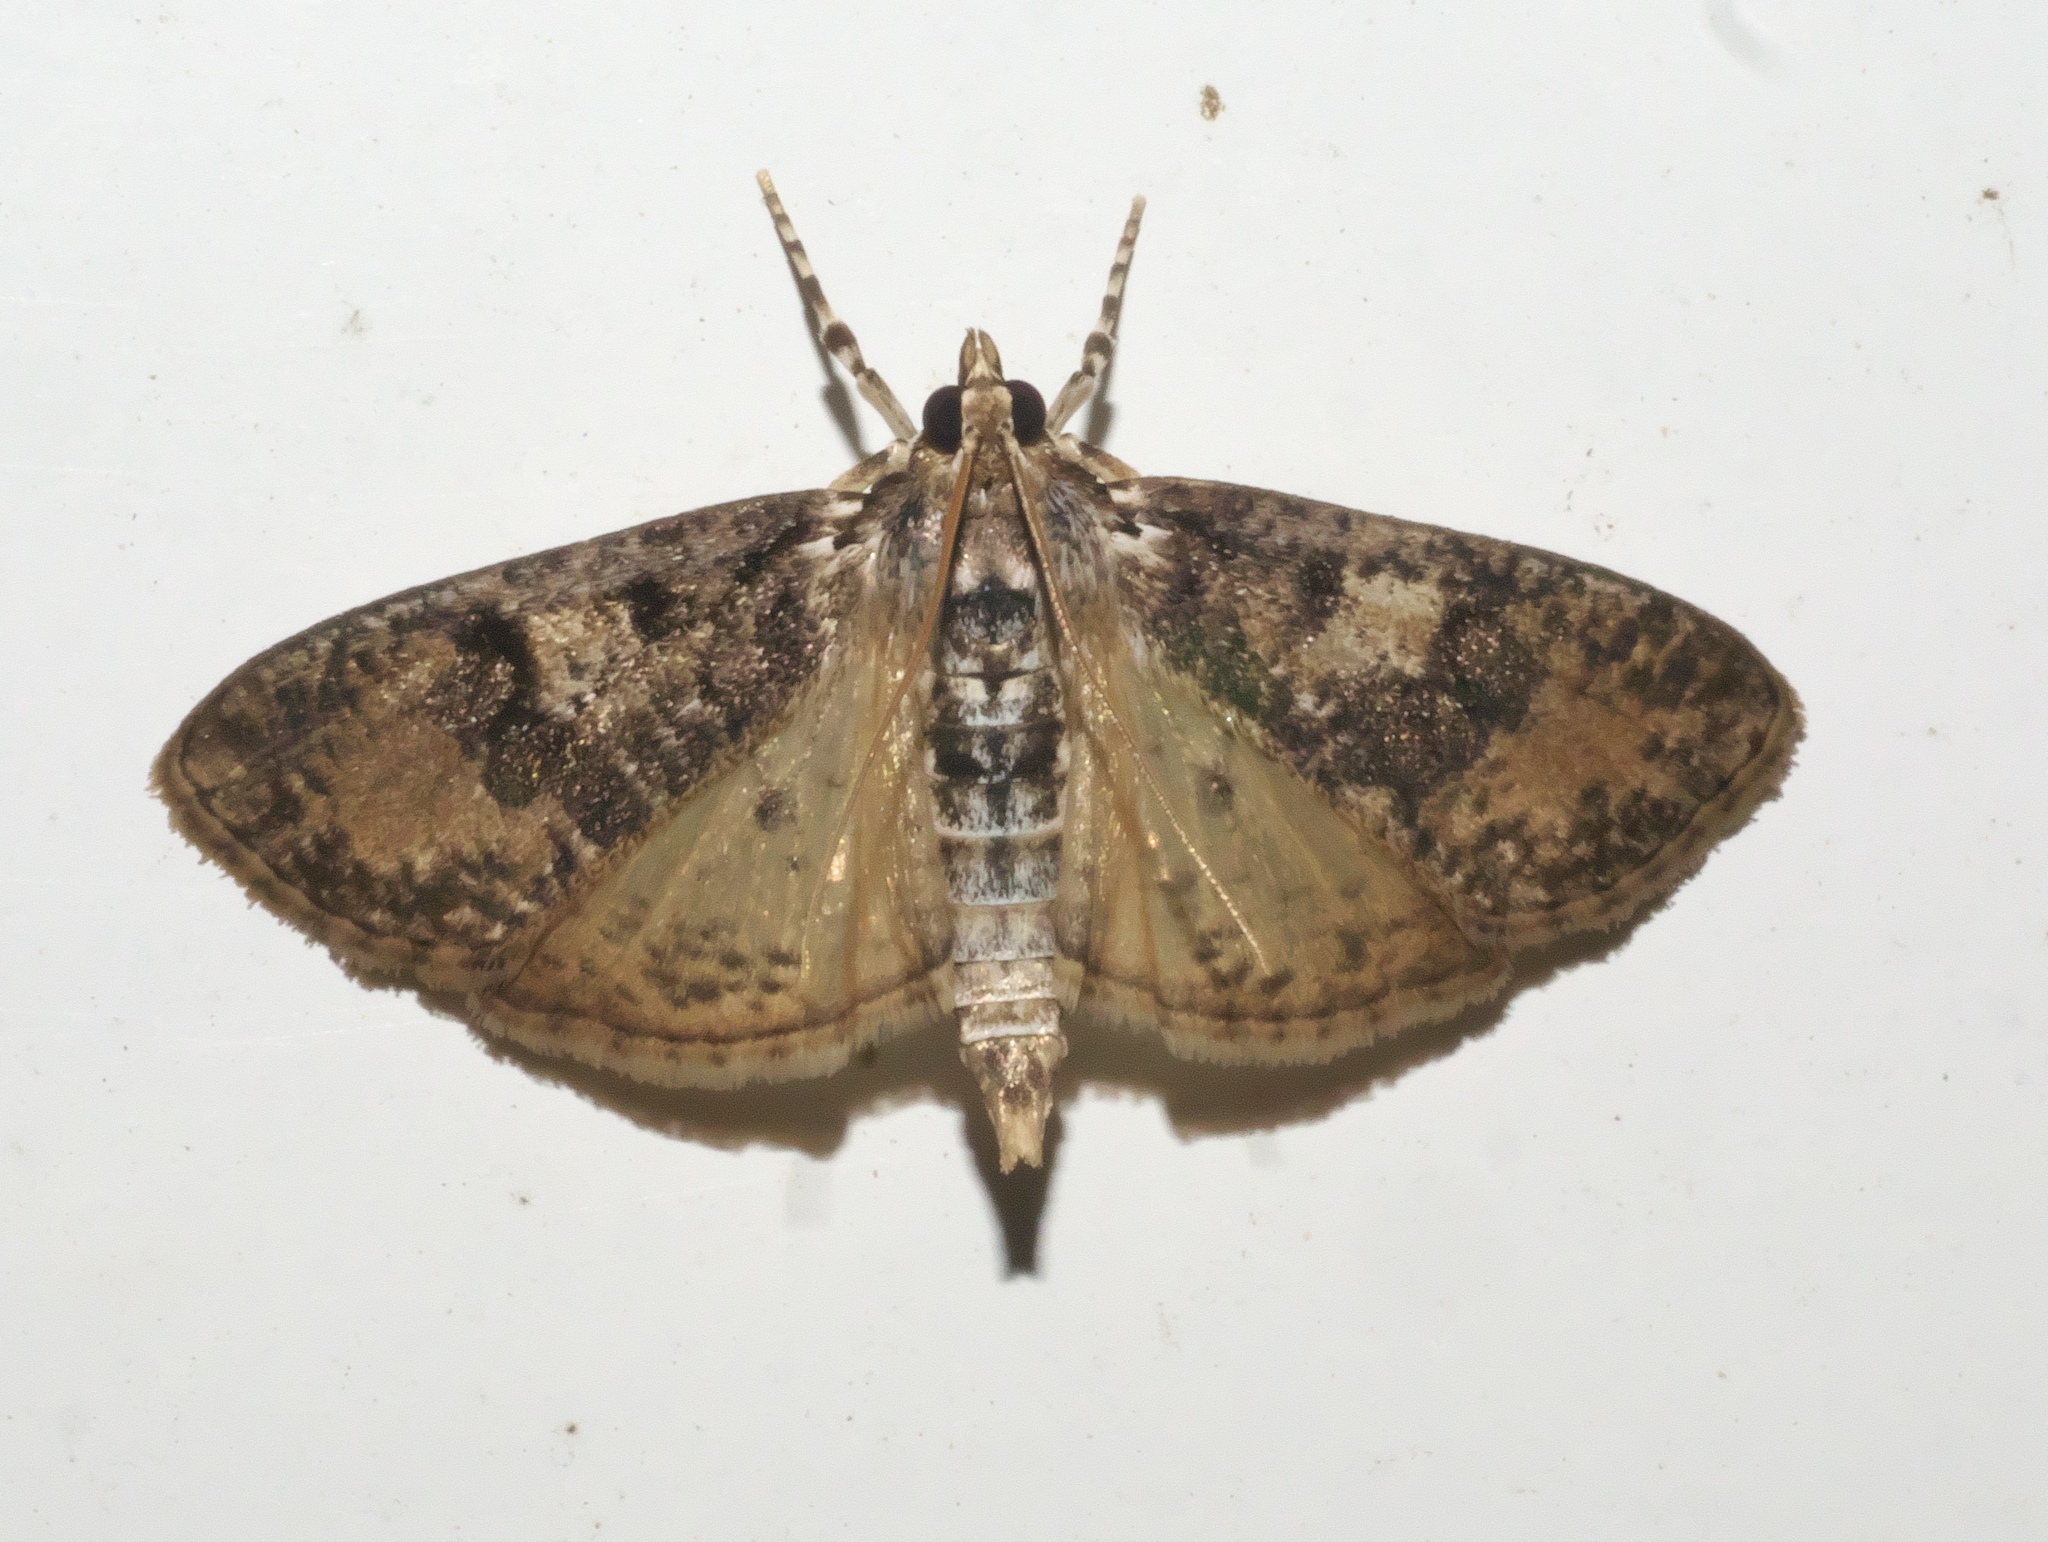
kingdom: Animalia
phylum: Arthropoda
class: Insecta
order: Lepidoptera
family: Crambidae
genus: Palpita
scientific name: Palpita magniferalis
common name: Splendid palpita moth
